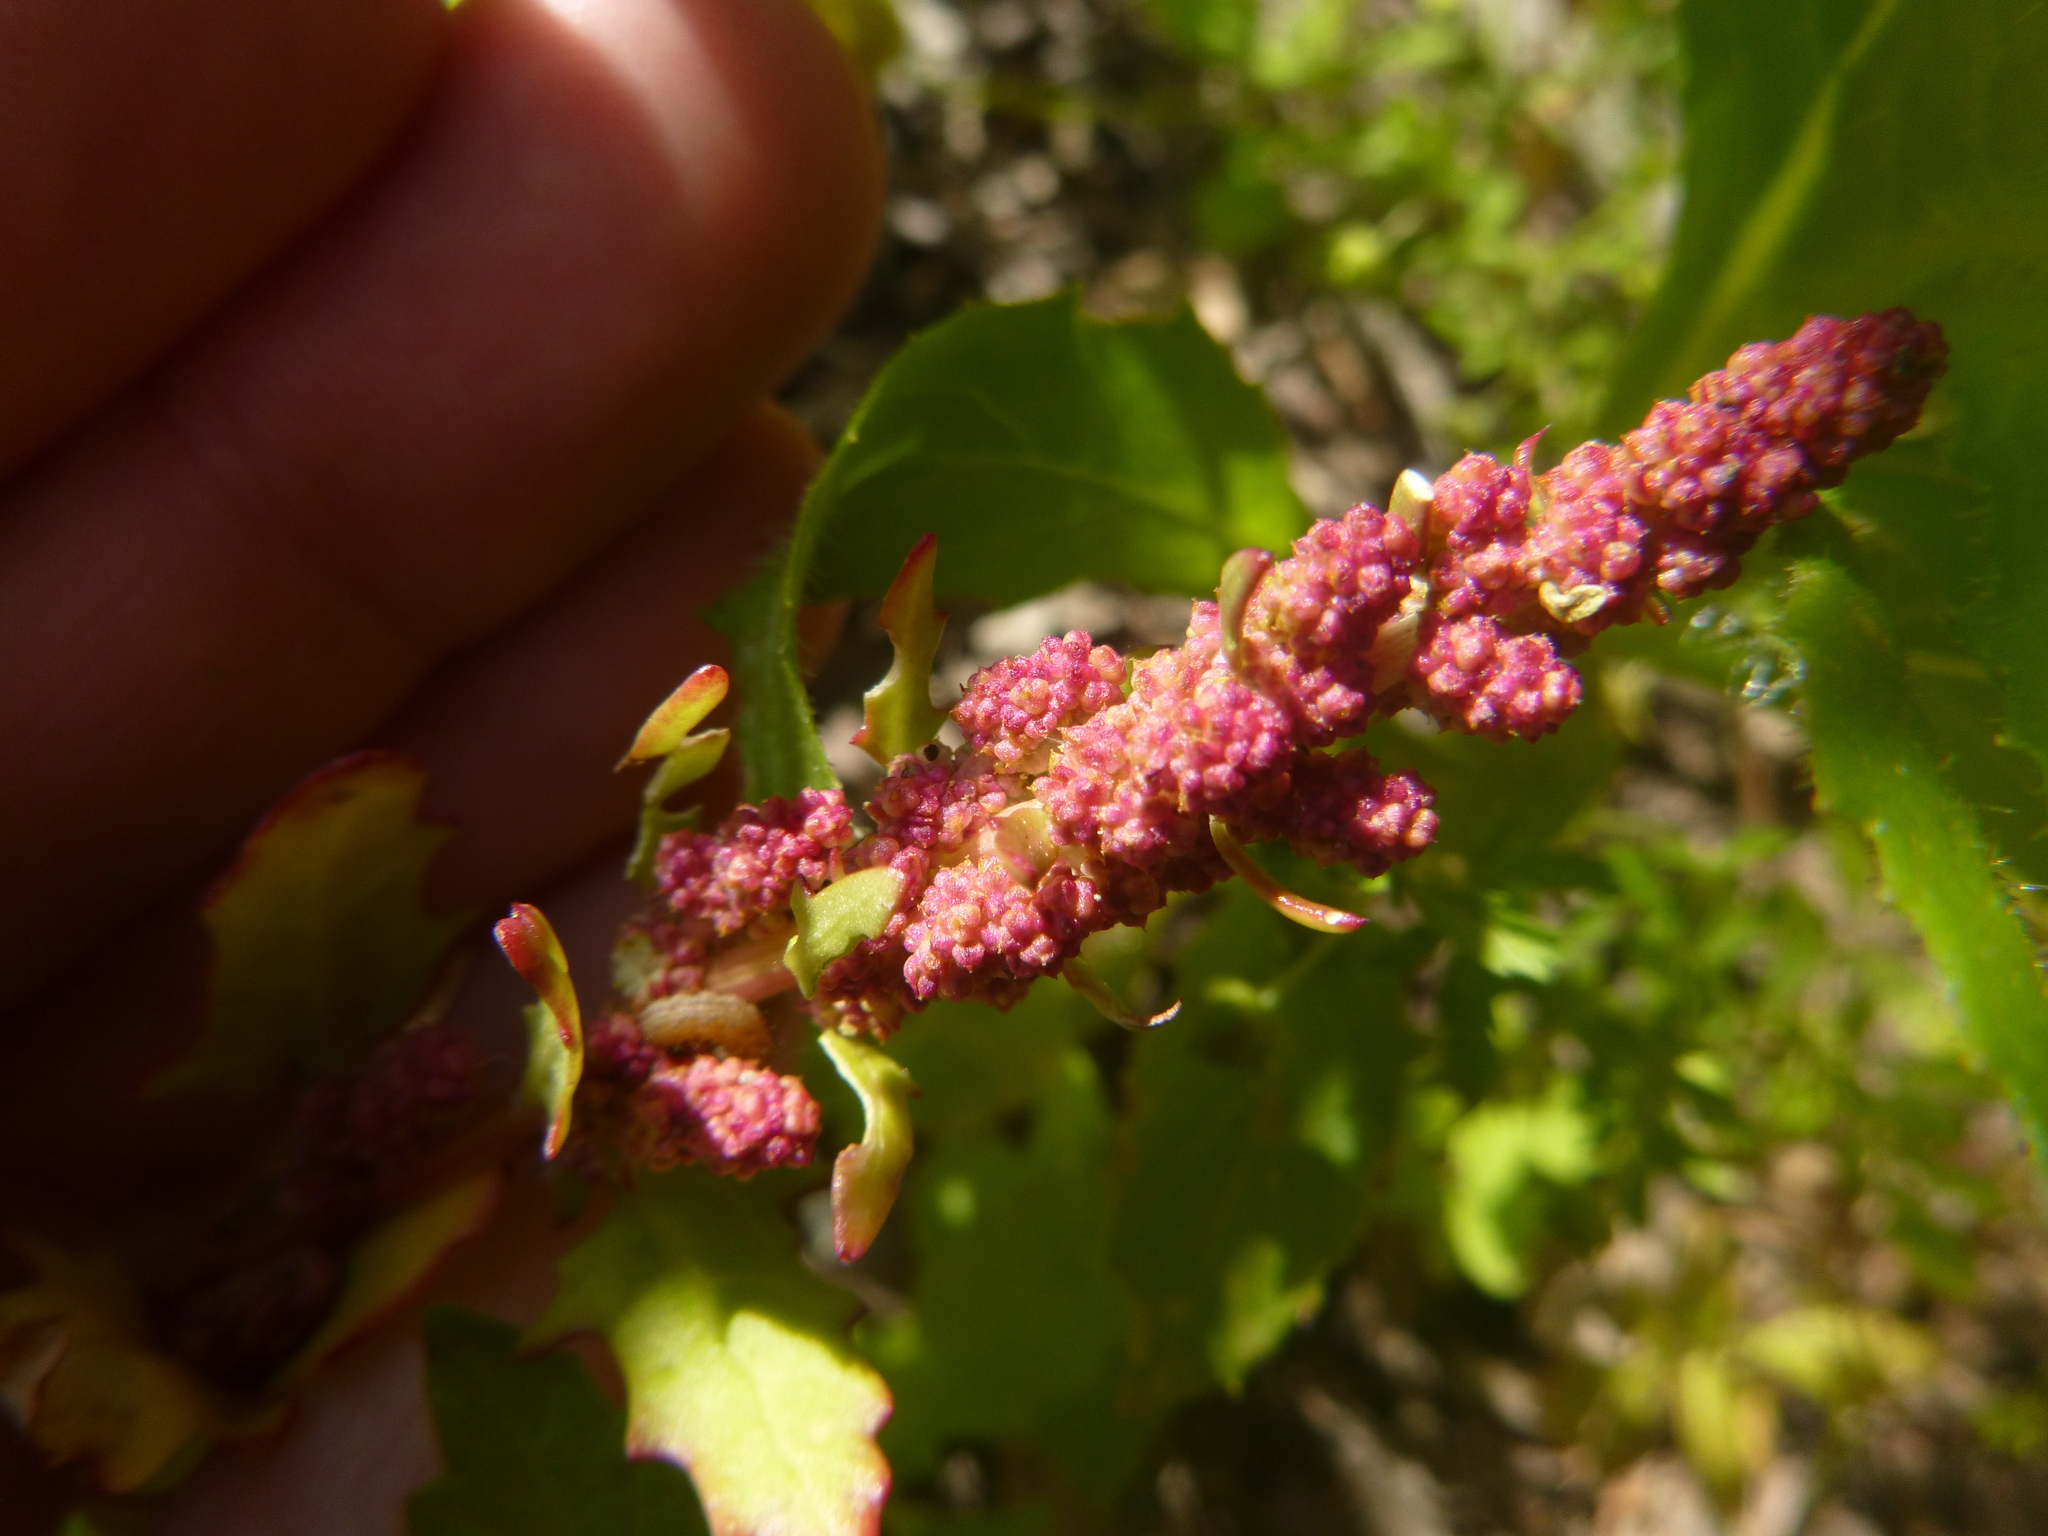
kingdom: Plantae
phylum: Tracheophyta
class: Magnoliopsida
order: Caryophyllales
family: Amaranthaceae
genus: Oxybasis
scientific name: Oxybasis rubra
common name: Red goosefoot
